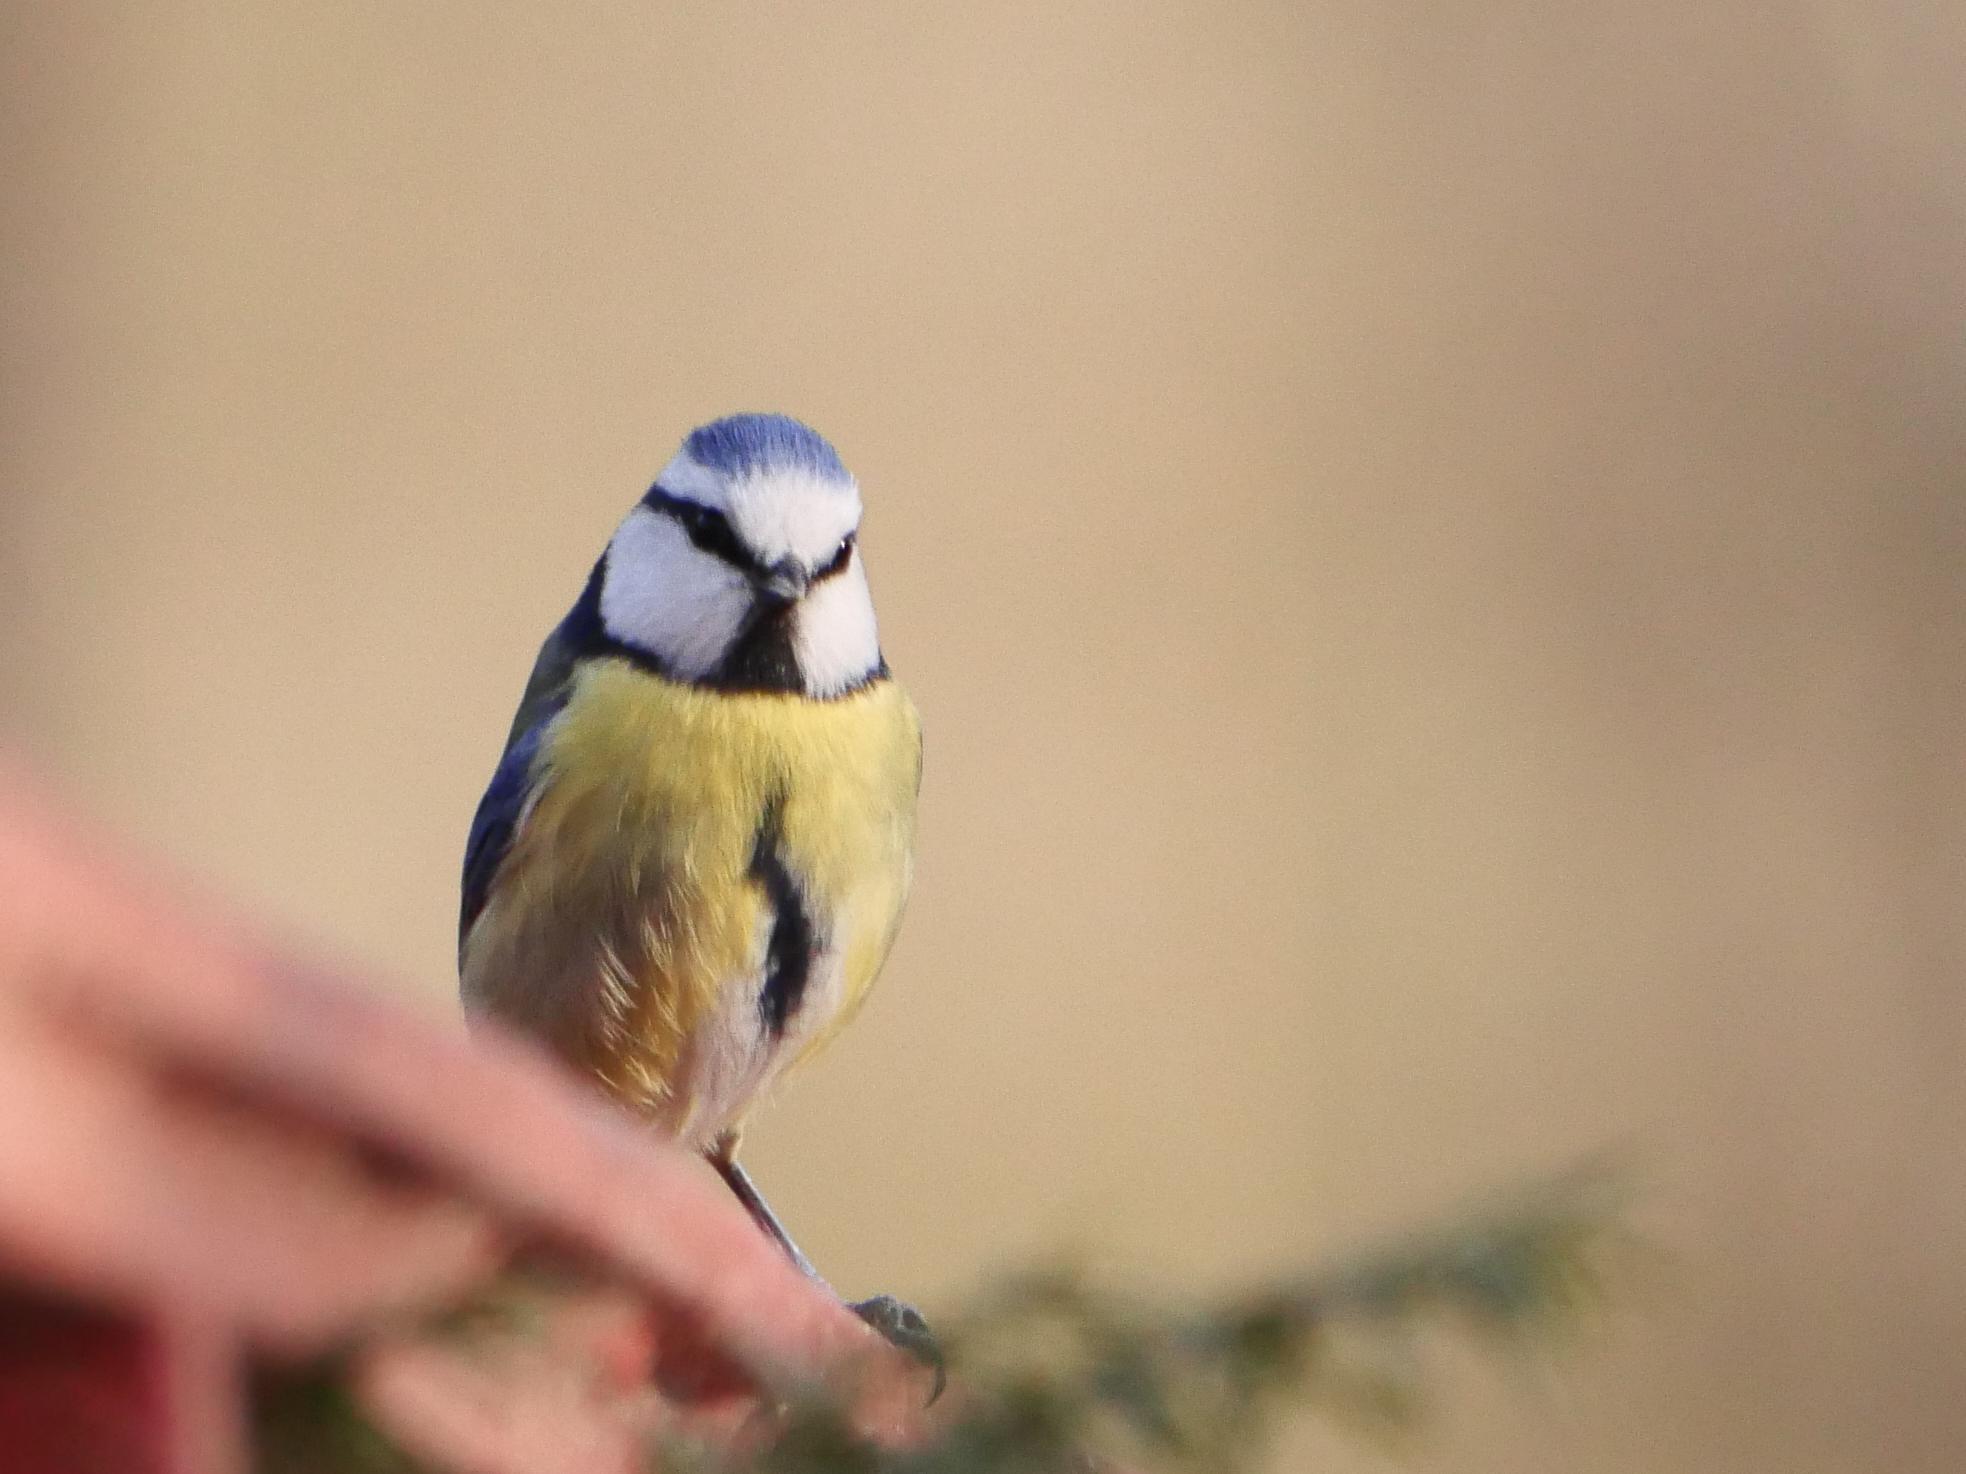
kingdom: Animalia
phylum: Chordata
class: Aves
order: Passeriformes
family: Paridae
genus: Cyanistes
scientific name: Cyanistes caeruleus
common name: Eurasian blue tit
